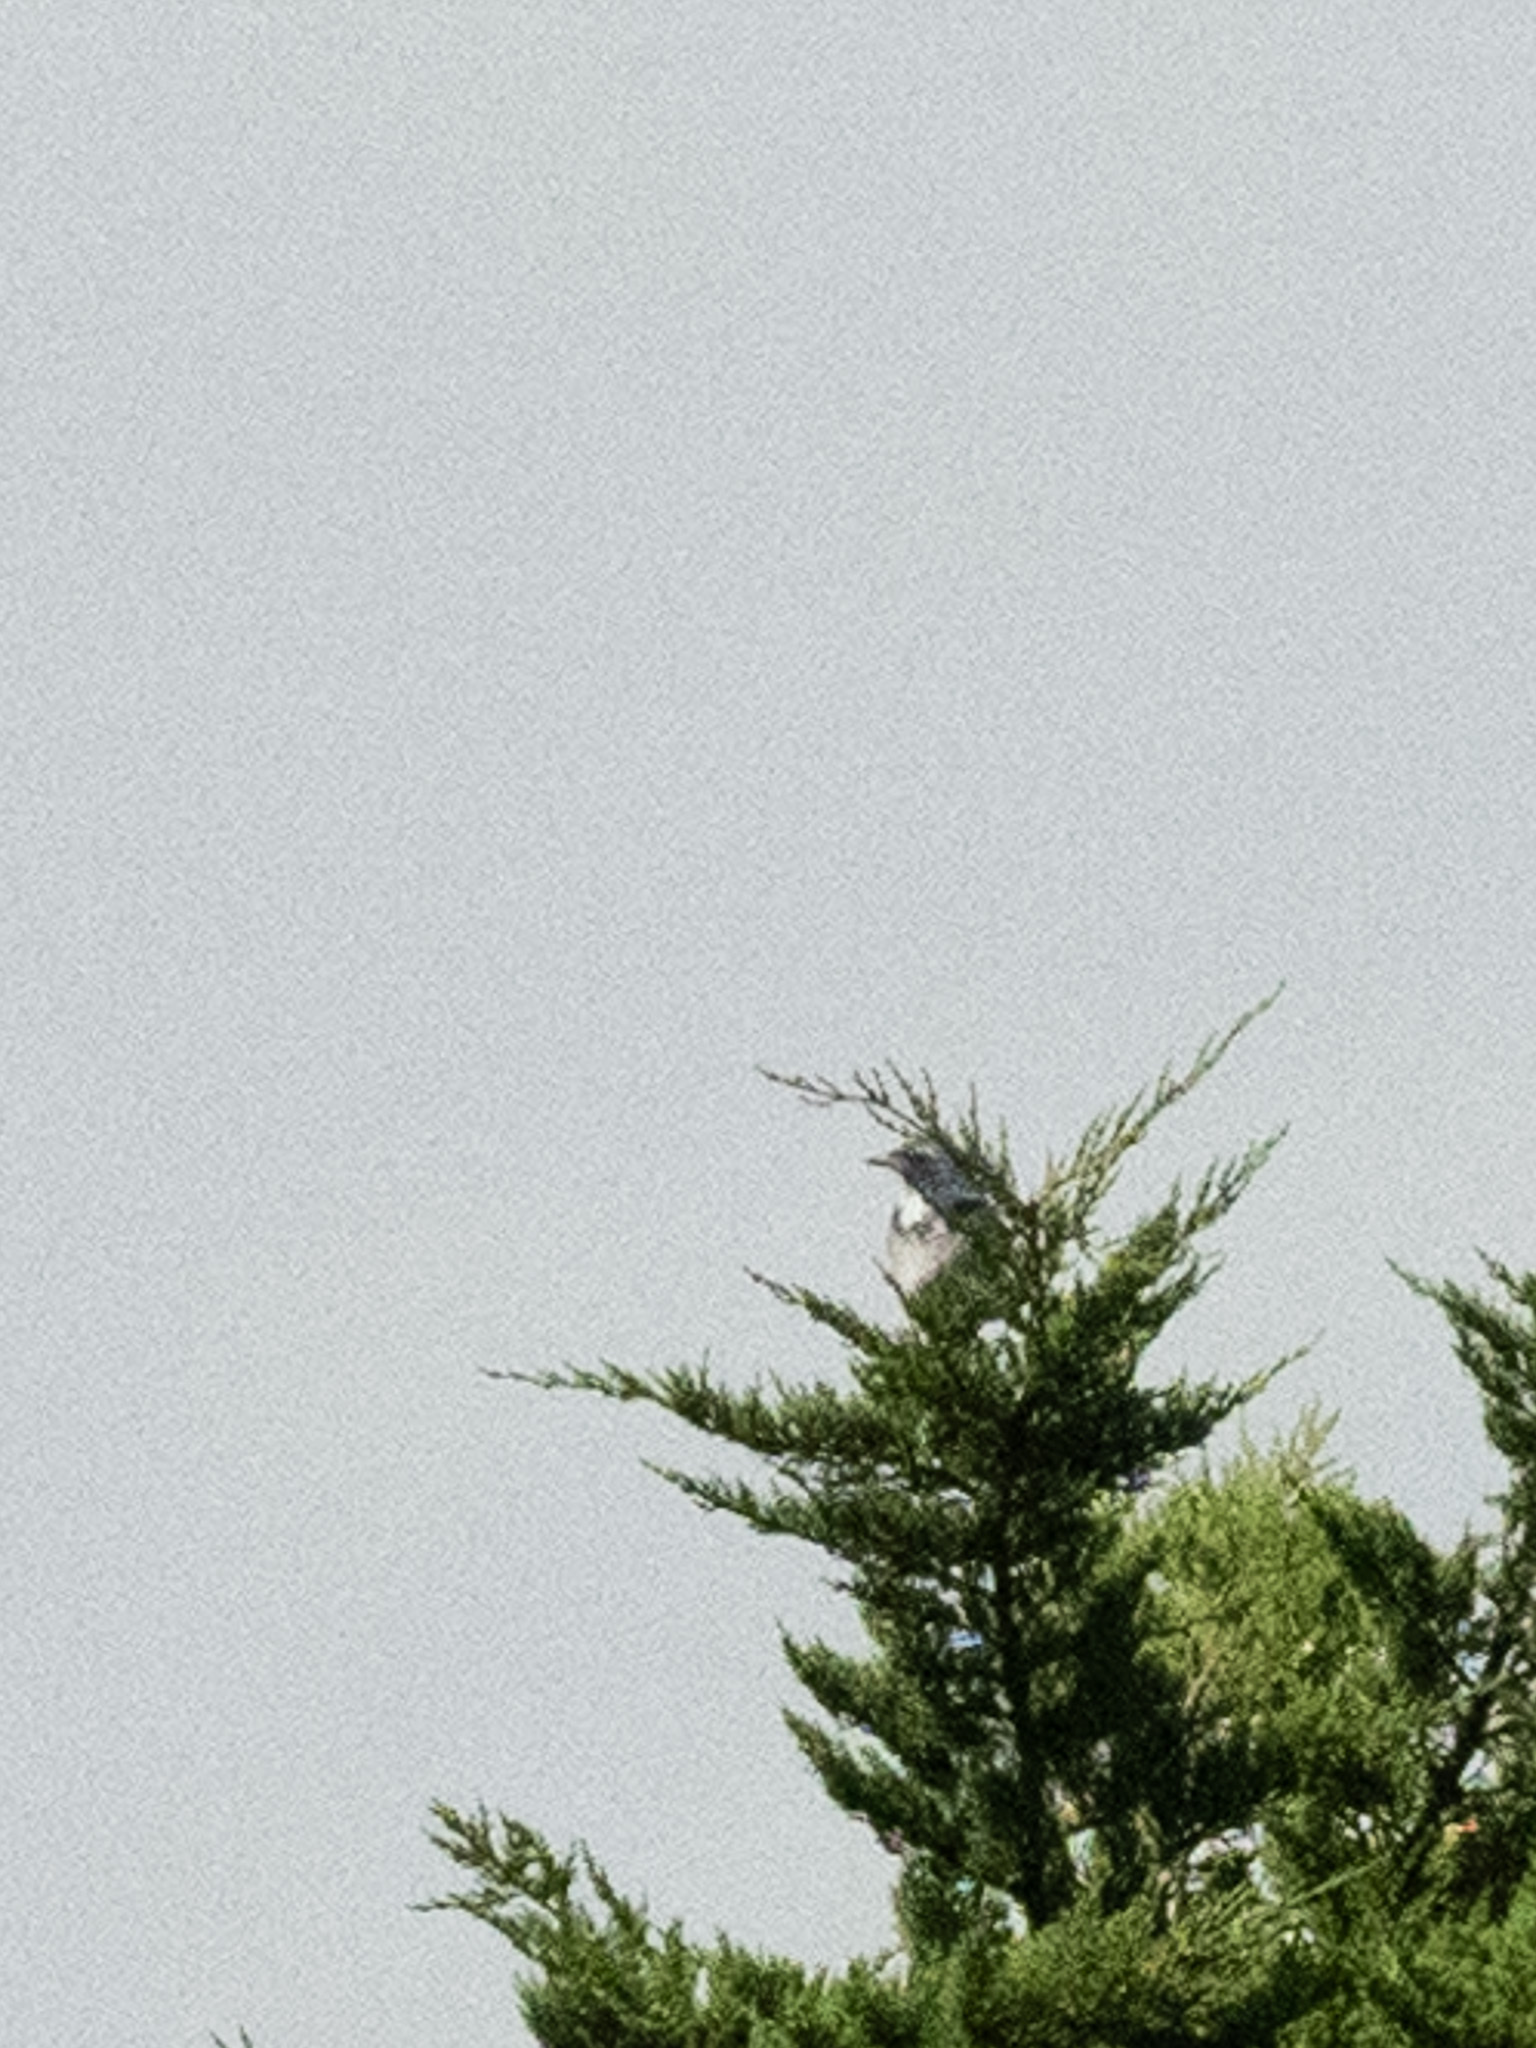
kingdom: Animalia
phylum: Chordata
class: Aves
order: Passeriformes
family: Corvidae
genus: Aphelocoma
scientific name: Aphelocoma californica
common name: California scrub-jay
